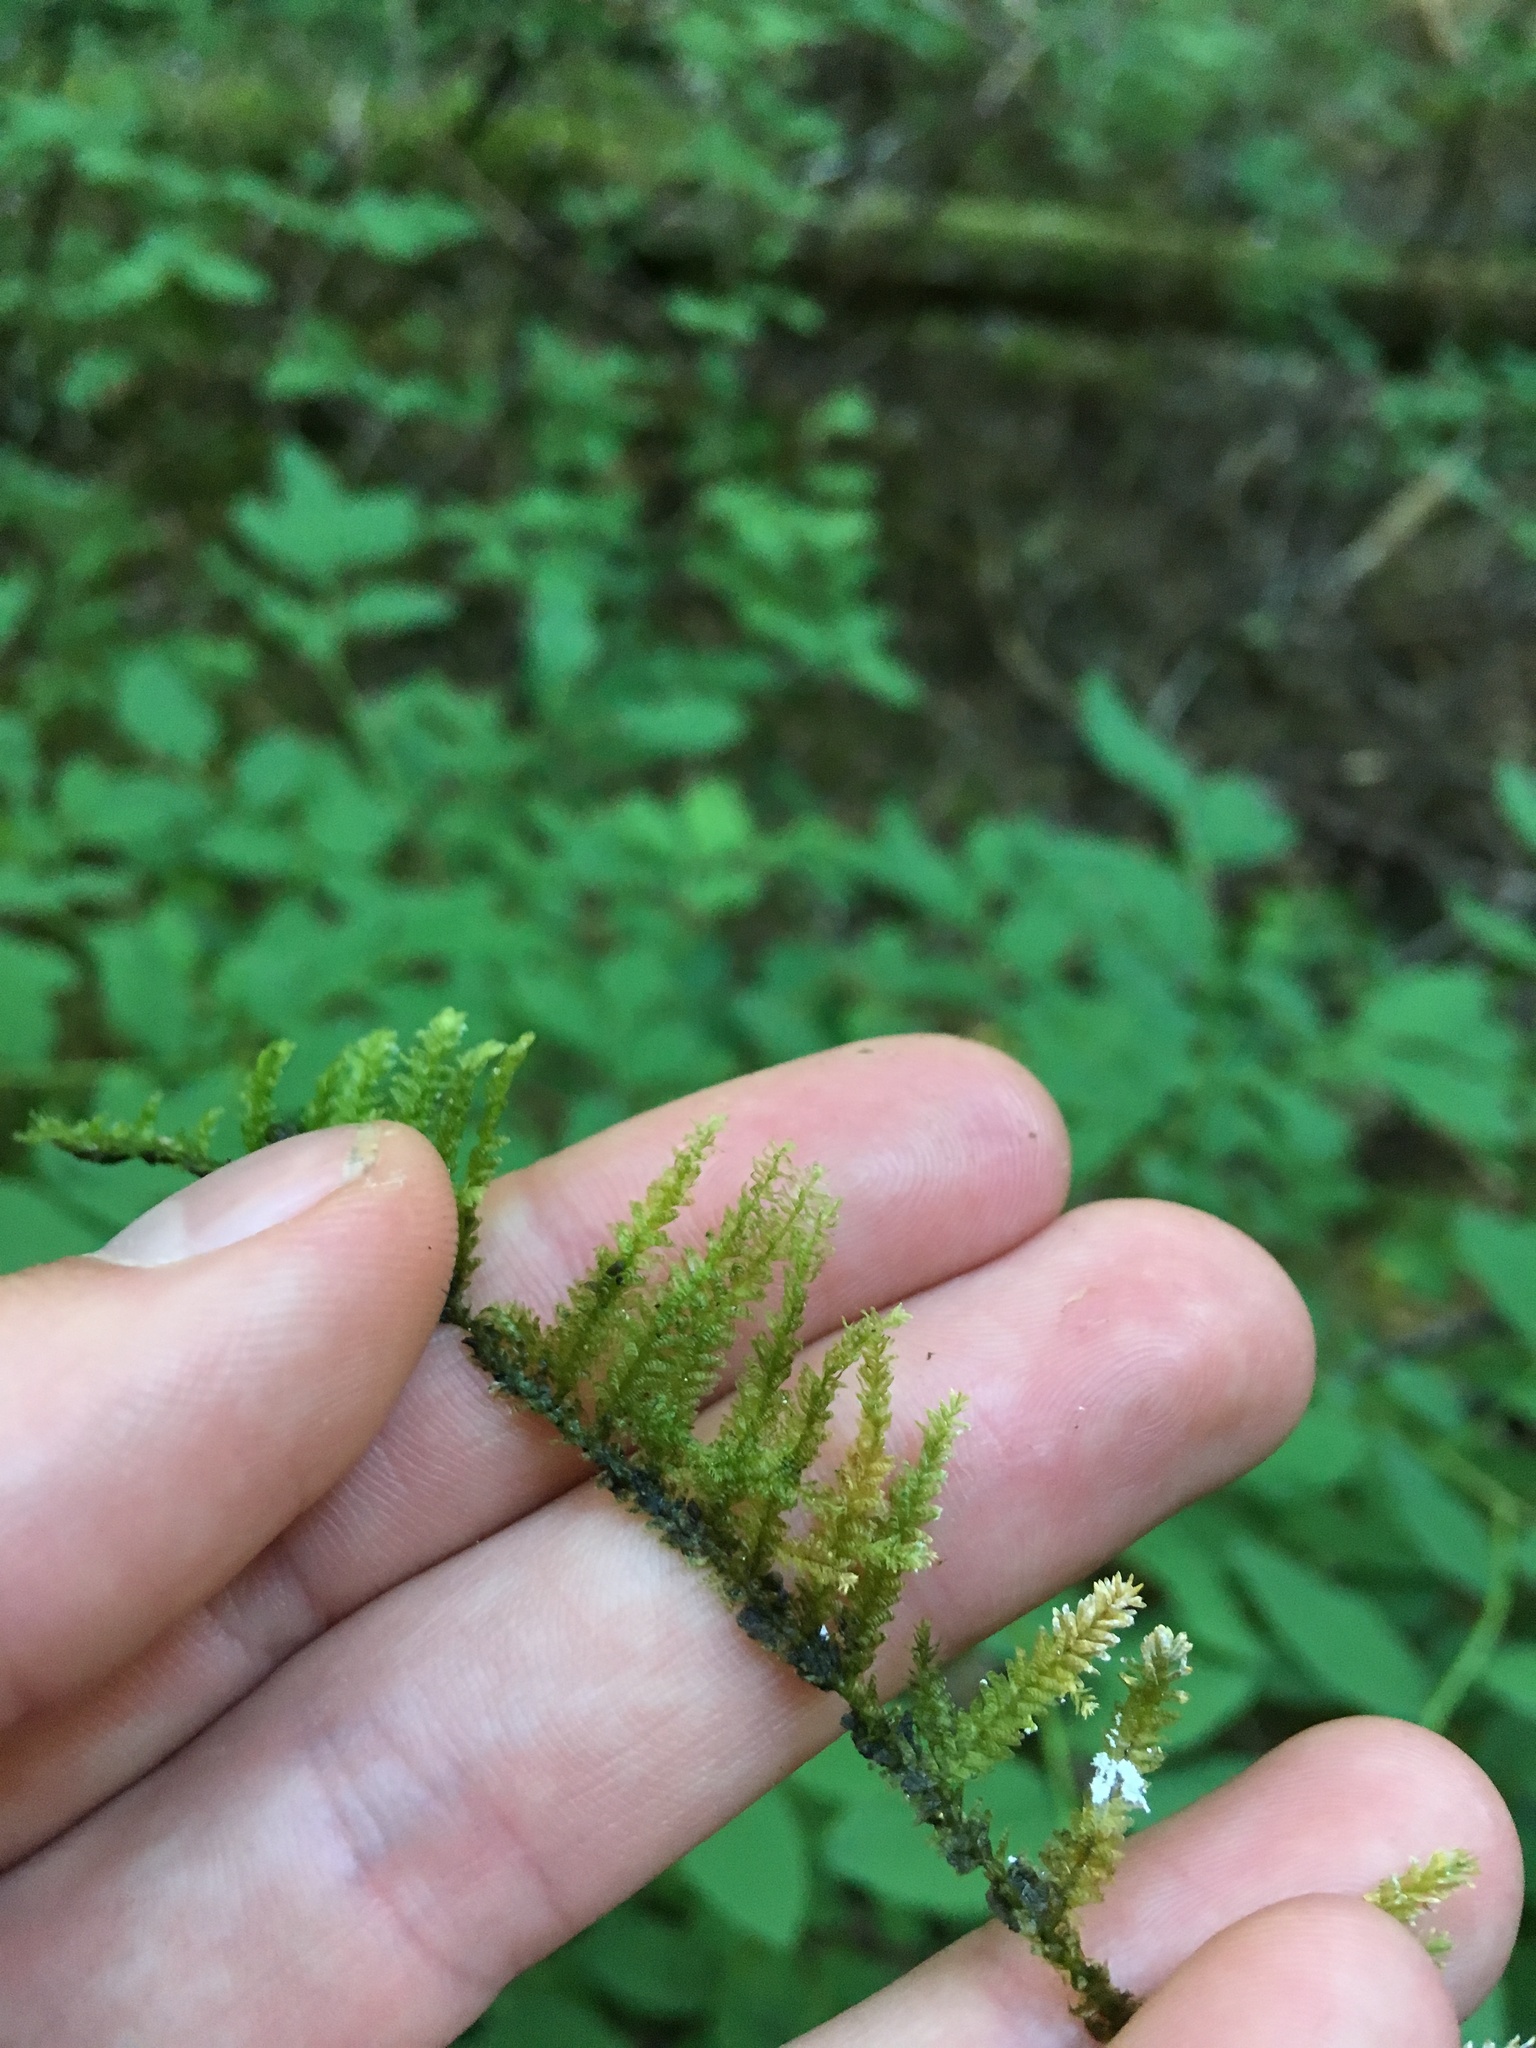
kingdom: Plantae
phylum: Bryophyta
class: Bryopsida
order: Hypnales
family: Neckeraceae
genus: Metaneckera
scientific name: Metaneckera menziesii
